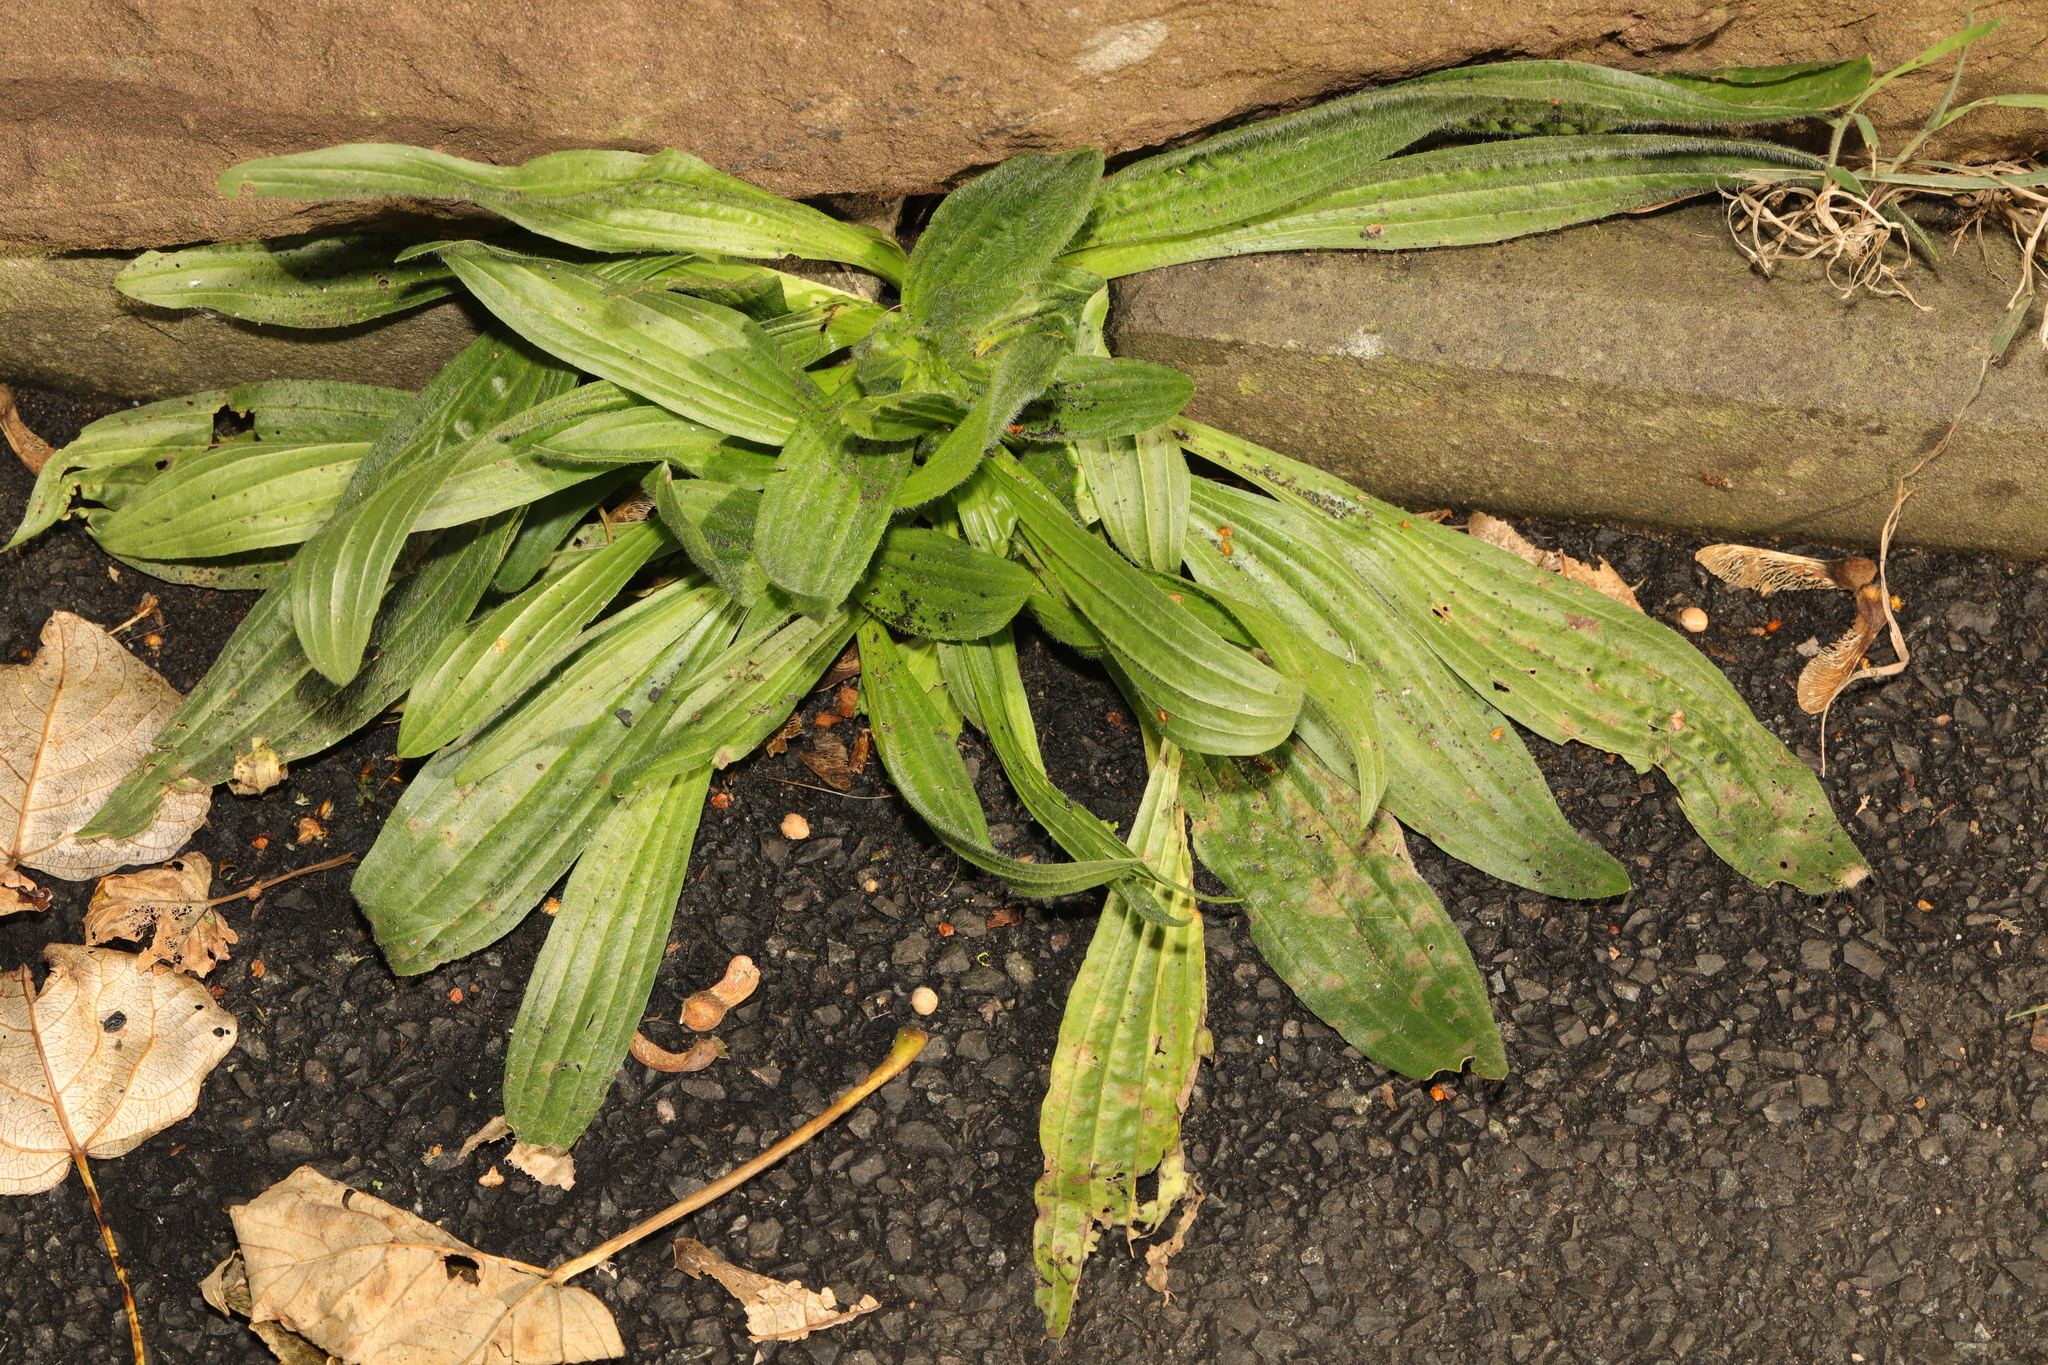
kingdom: Plantae
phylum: Tracheophyta
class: Magnoliopsida
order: Lamiales
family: Plantaginaceae
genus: Plantago
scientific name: Plantago lanceolata
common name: Ribwort plantain
